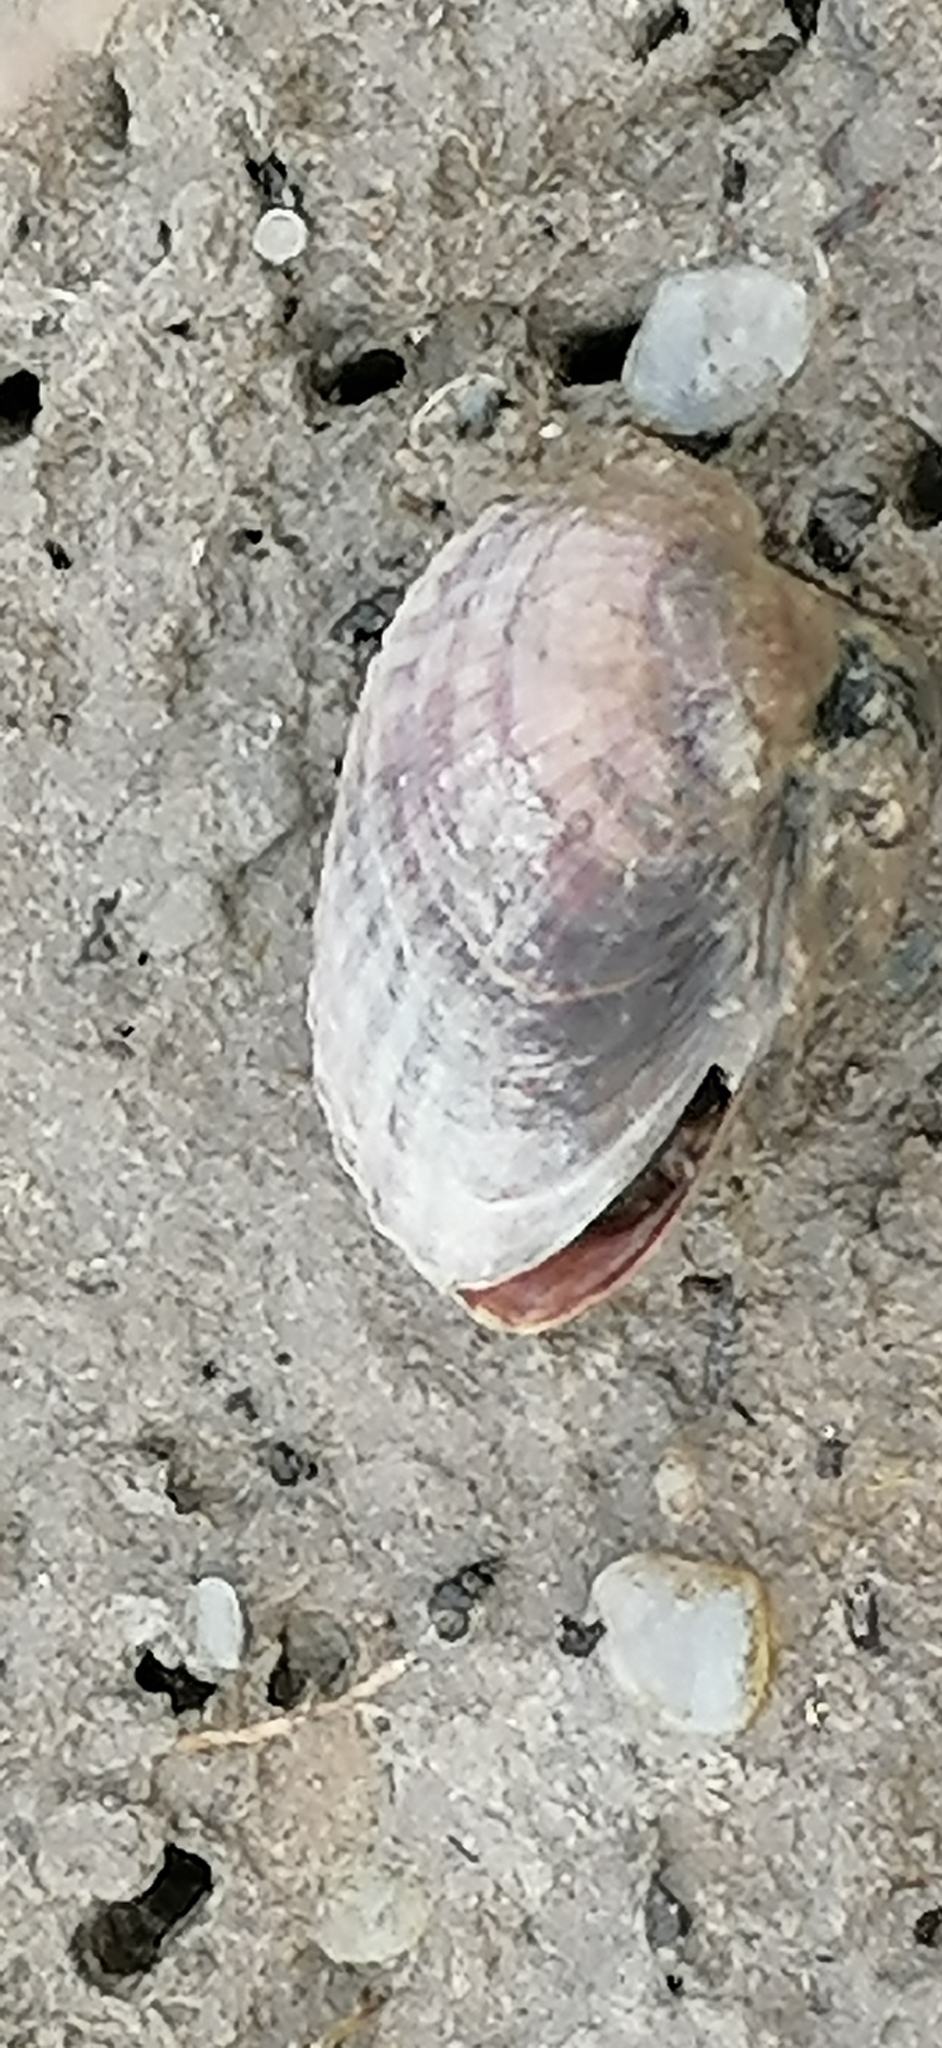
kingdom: Animalia
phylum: Mollusca
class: Bivalvia
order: Cardiida
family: Cardiidae
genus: Monodacna
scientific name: Monodacna colorata
